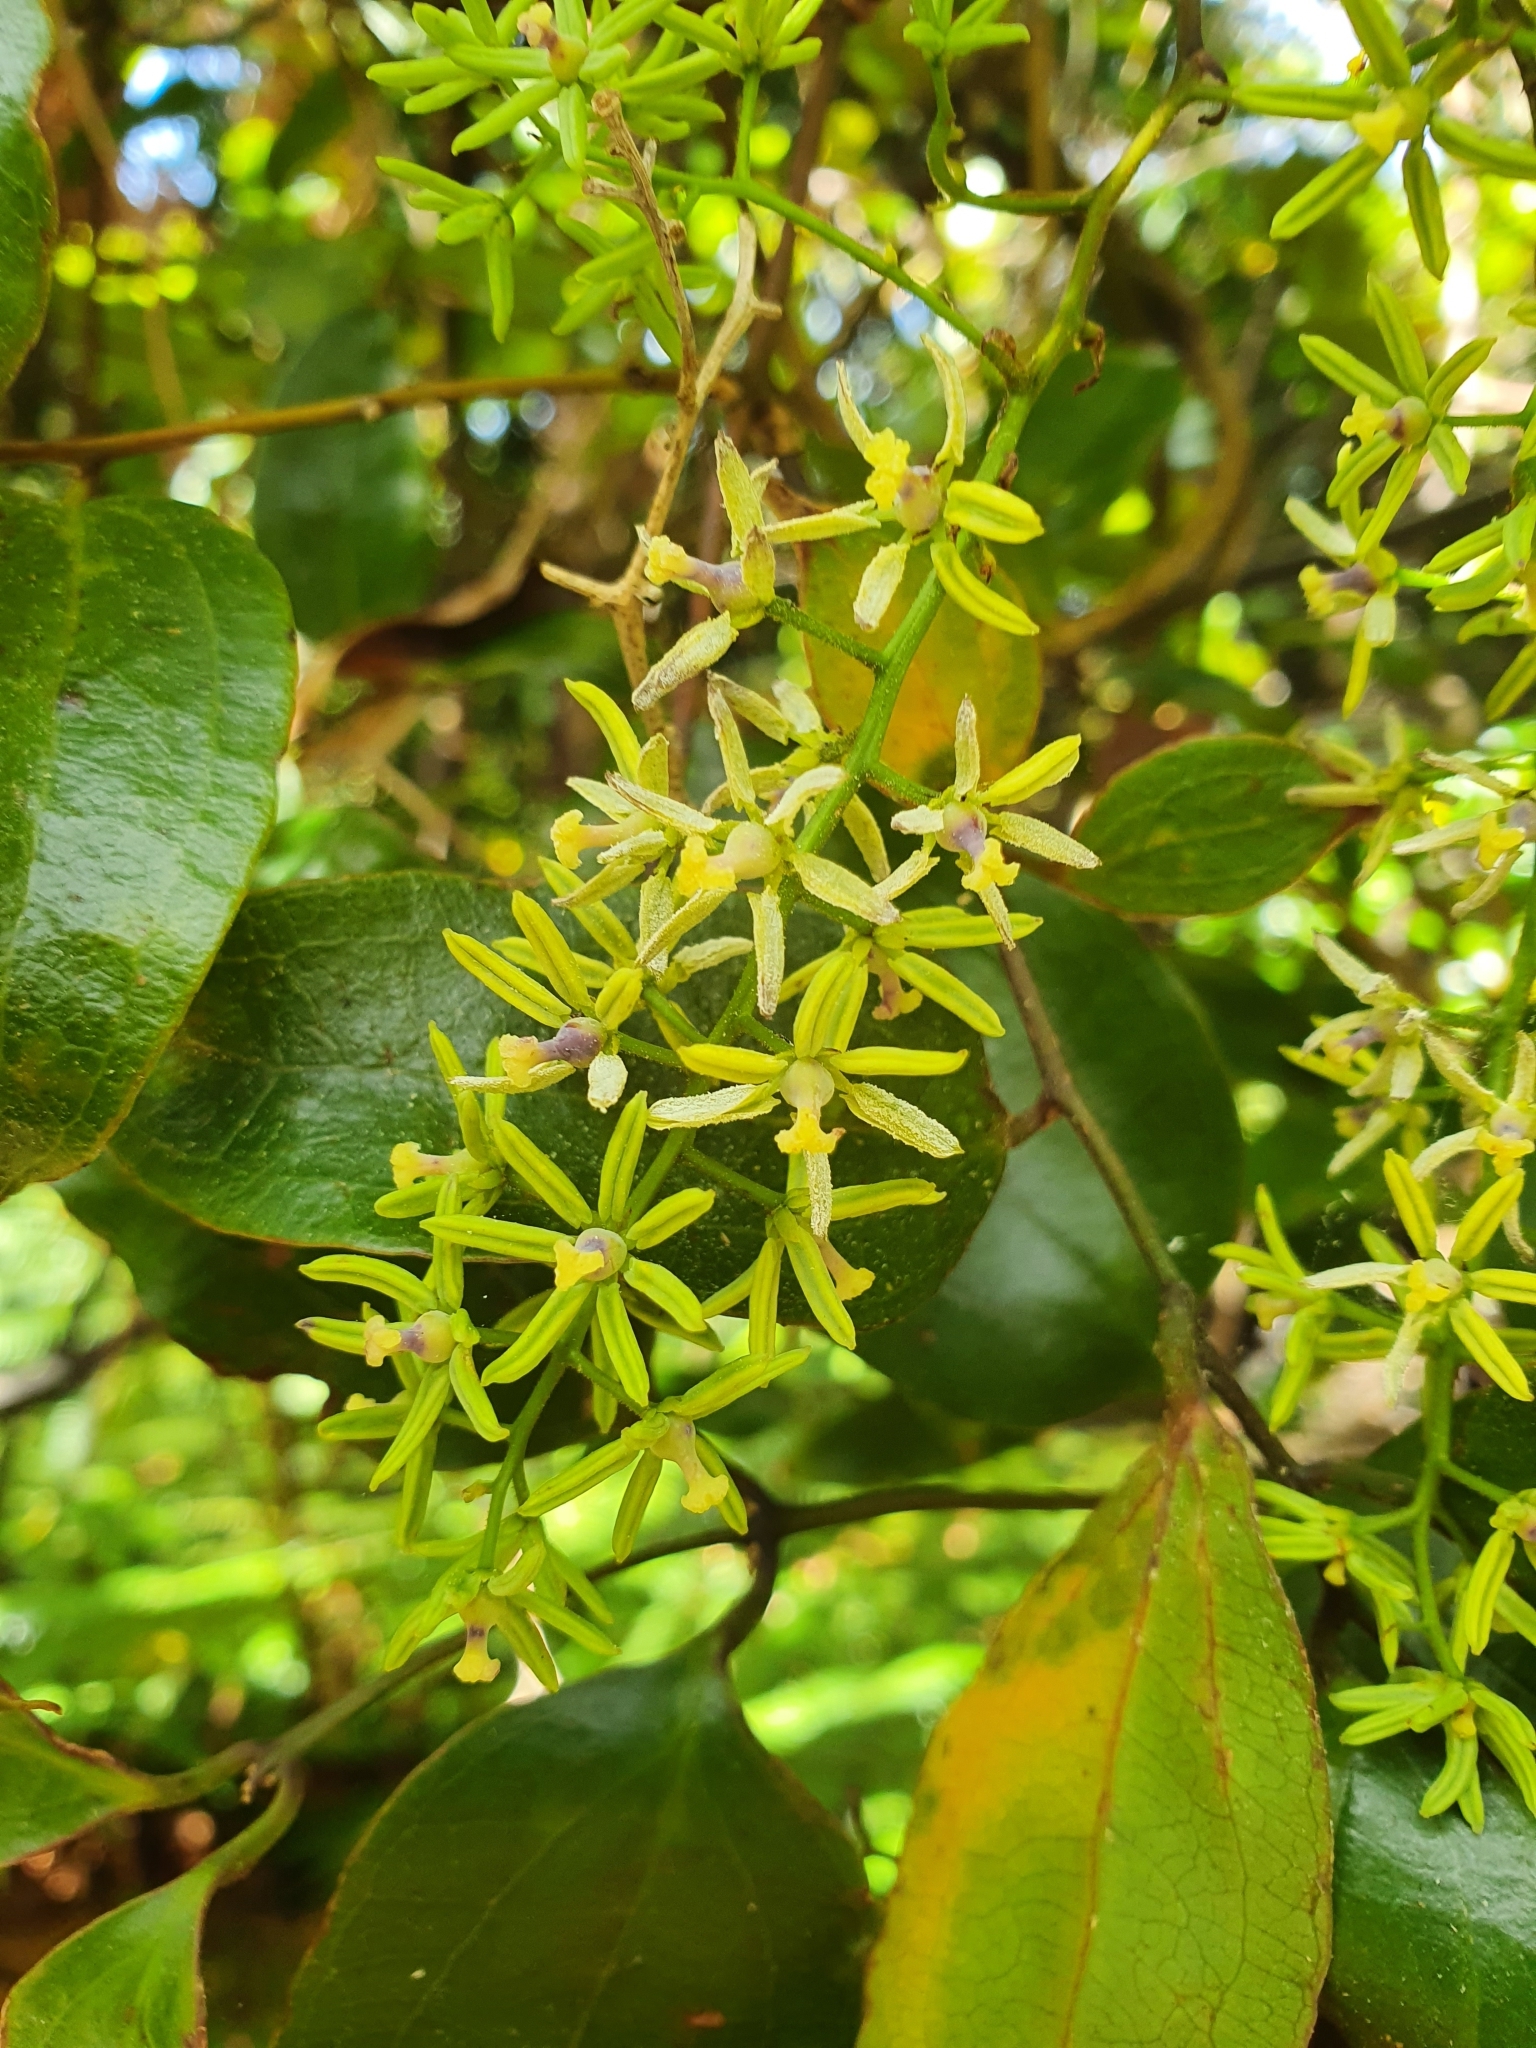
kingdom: Plantae
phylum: Tracheophyta
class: Liliopsida
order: Liliales
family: Ripogonaceae
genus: Ripogonum
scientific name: Ripogonum scandens
